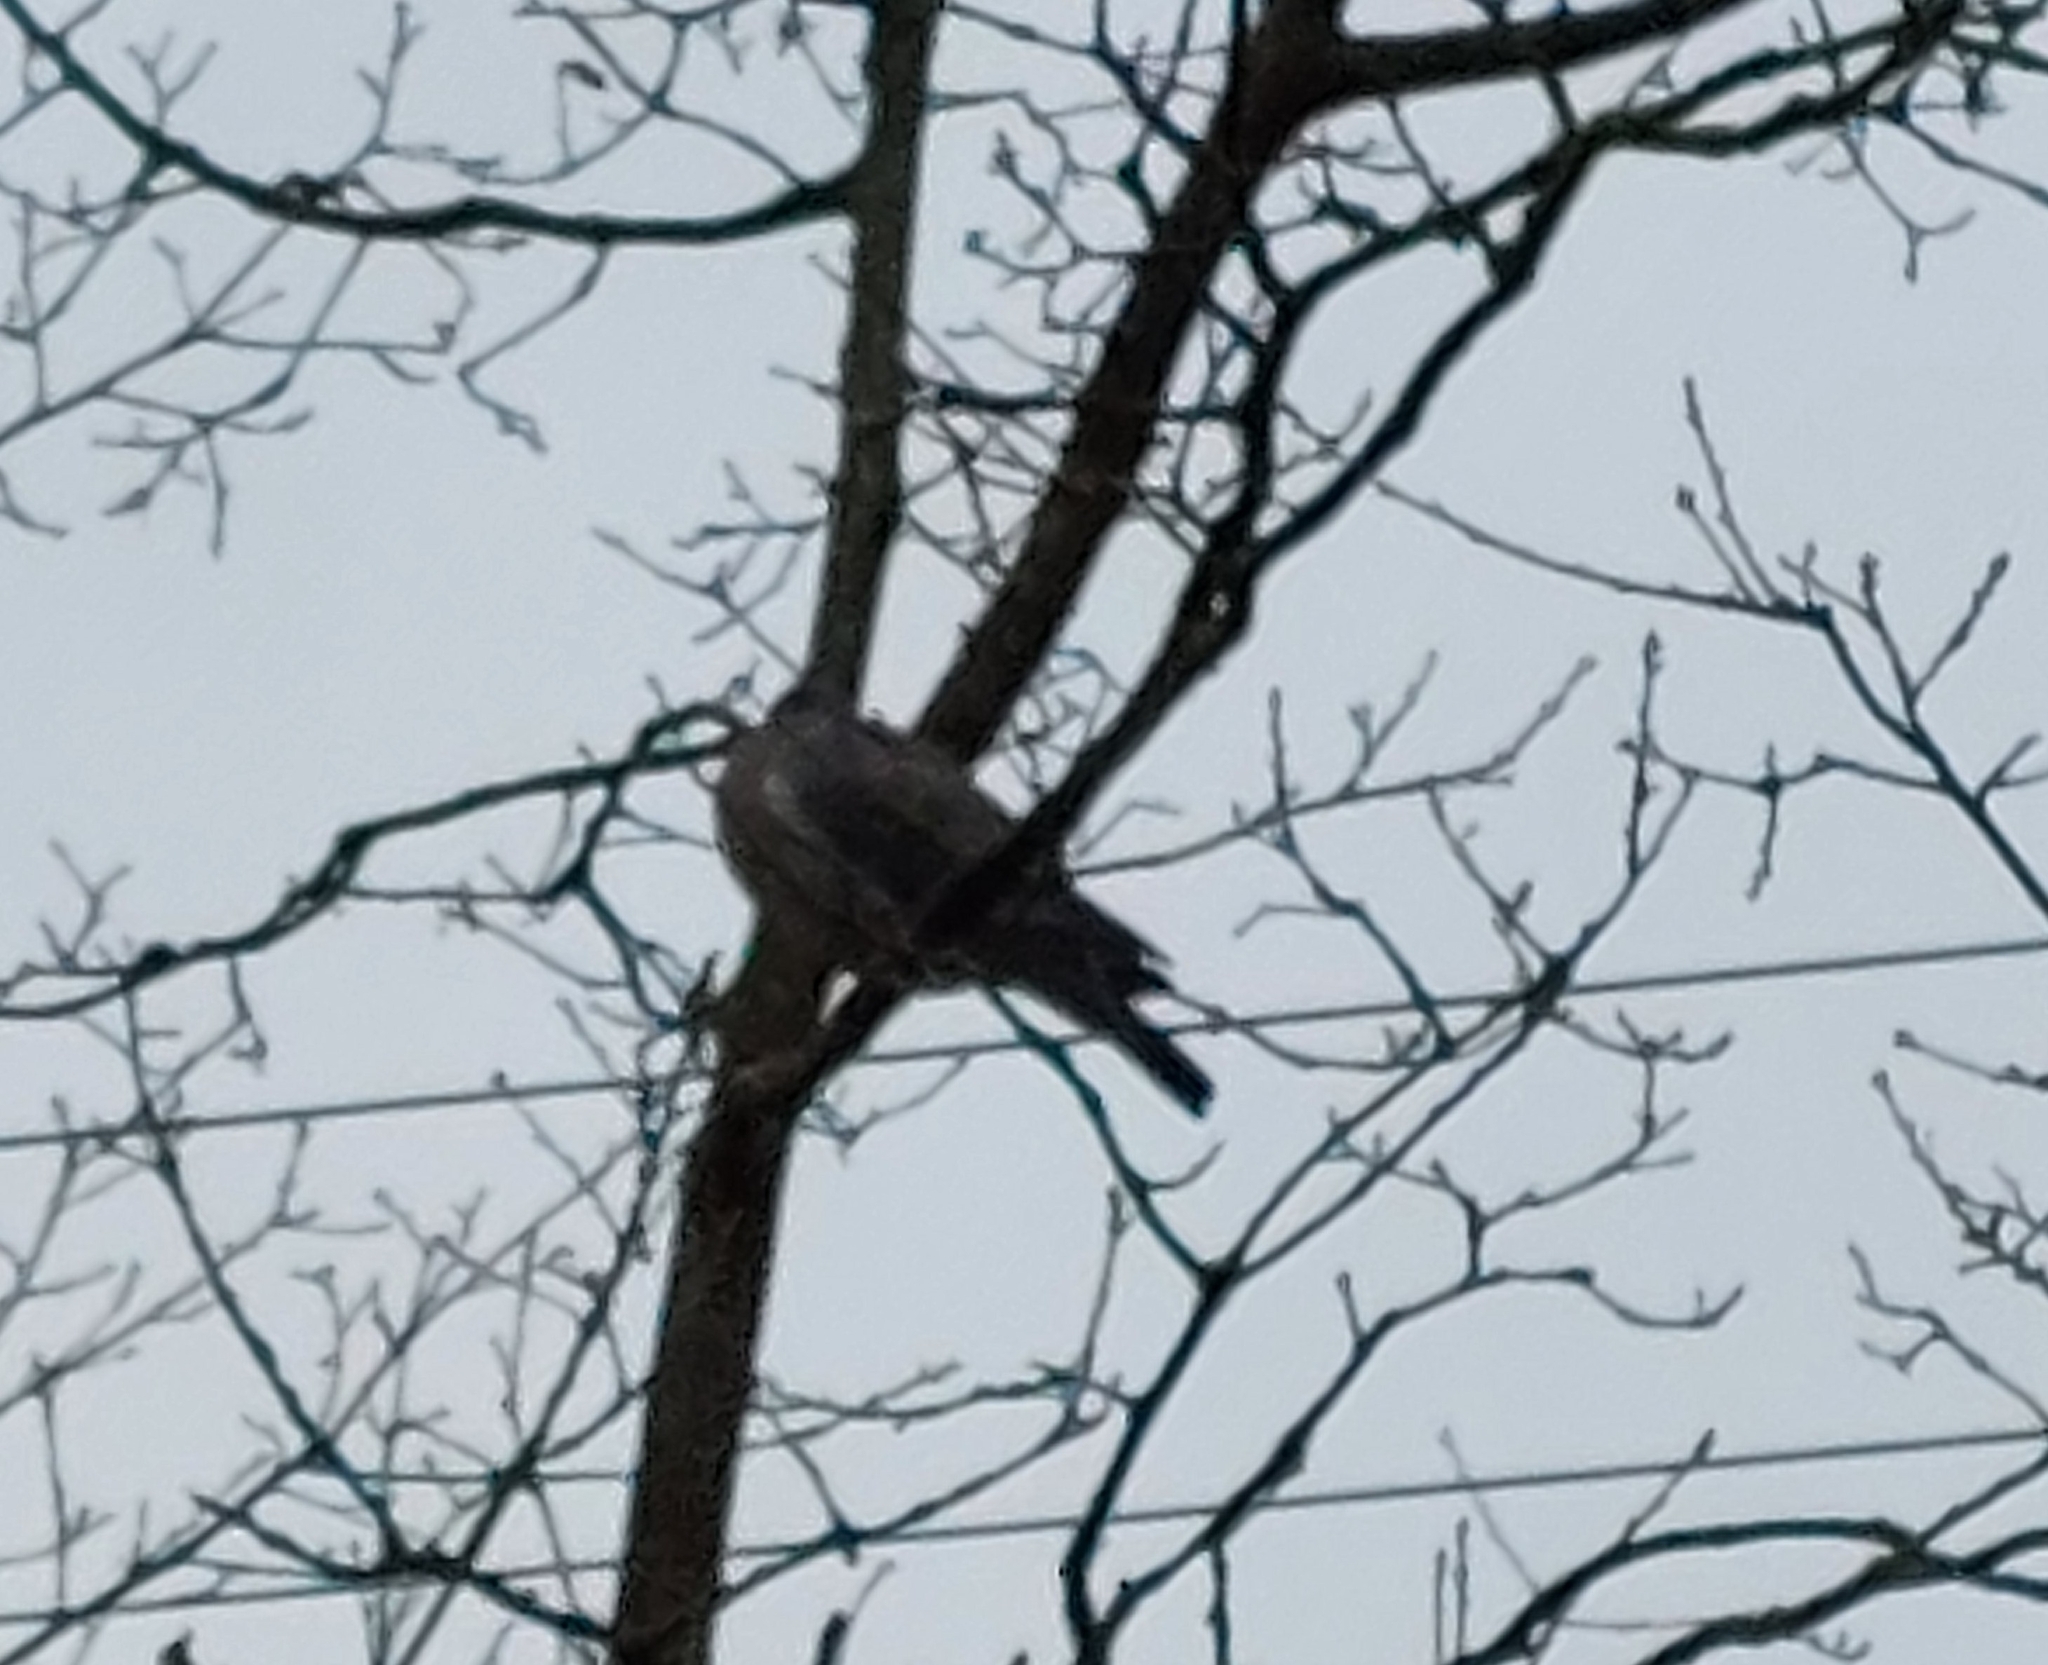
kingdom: Animalia
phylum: Chordata
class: Aves
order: Columbiformes
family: Columbidae
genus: Columba
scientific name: Columba palumbus
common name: Common wood pigeon
